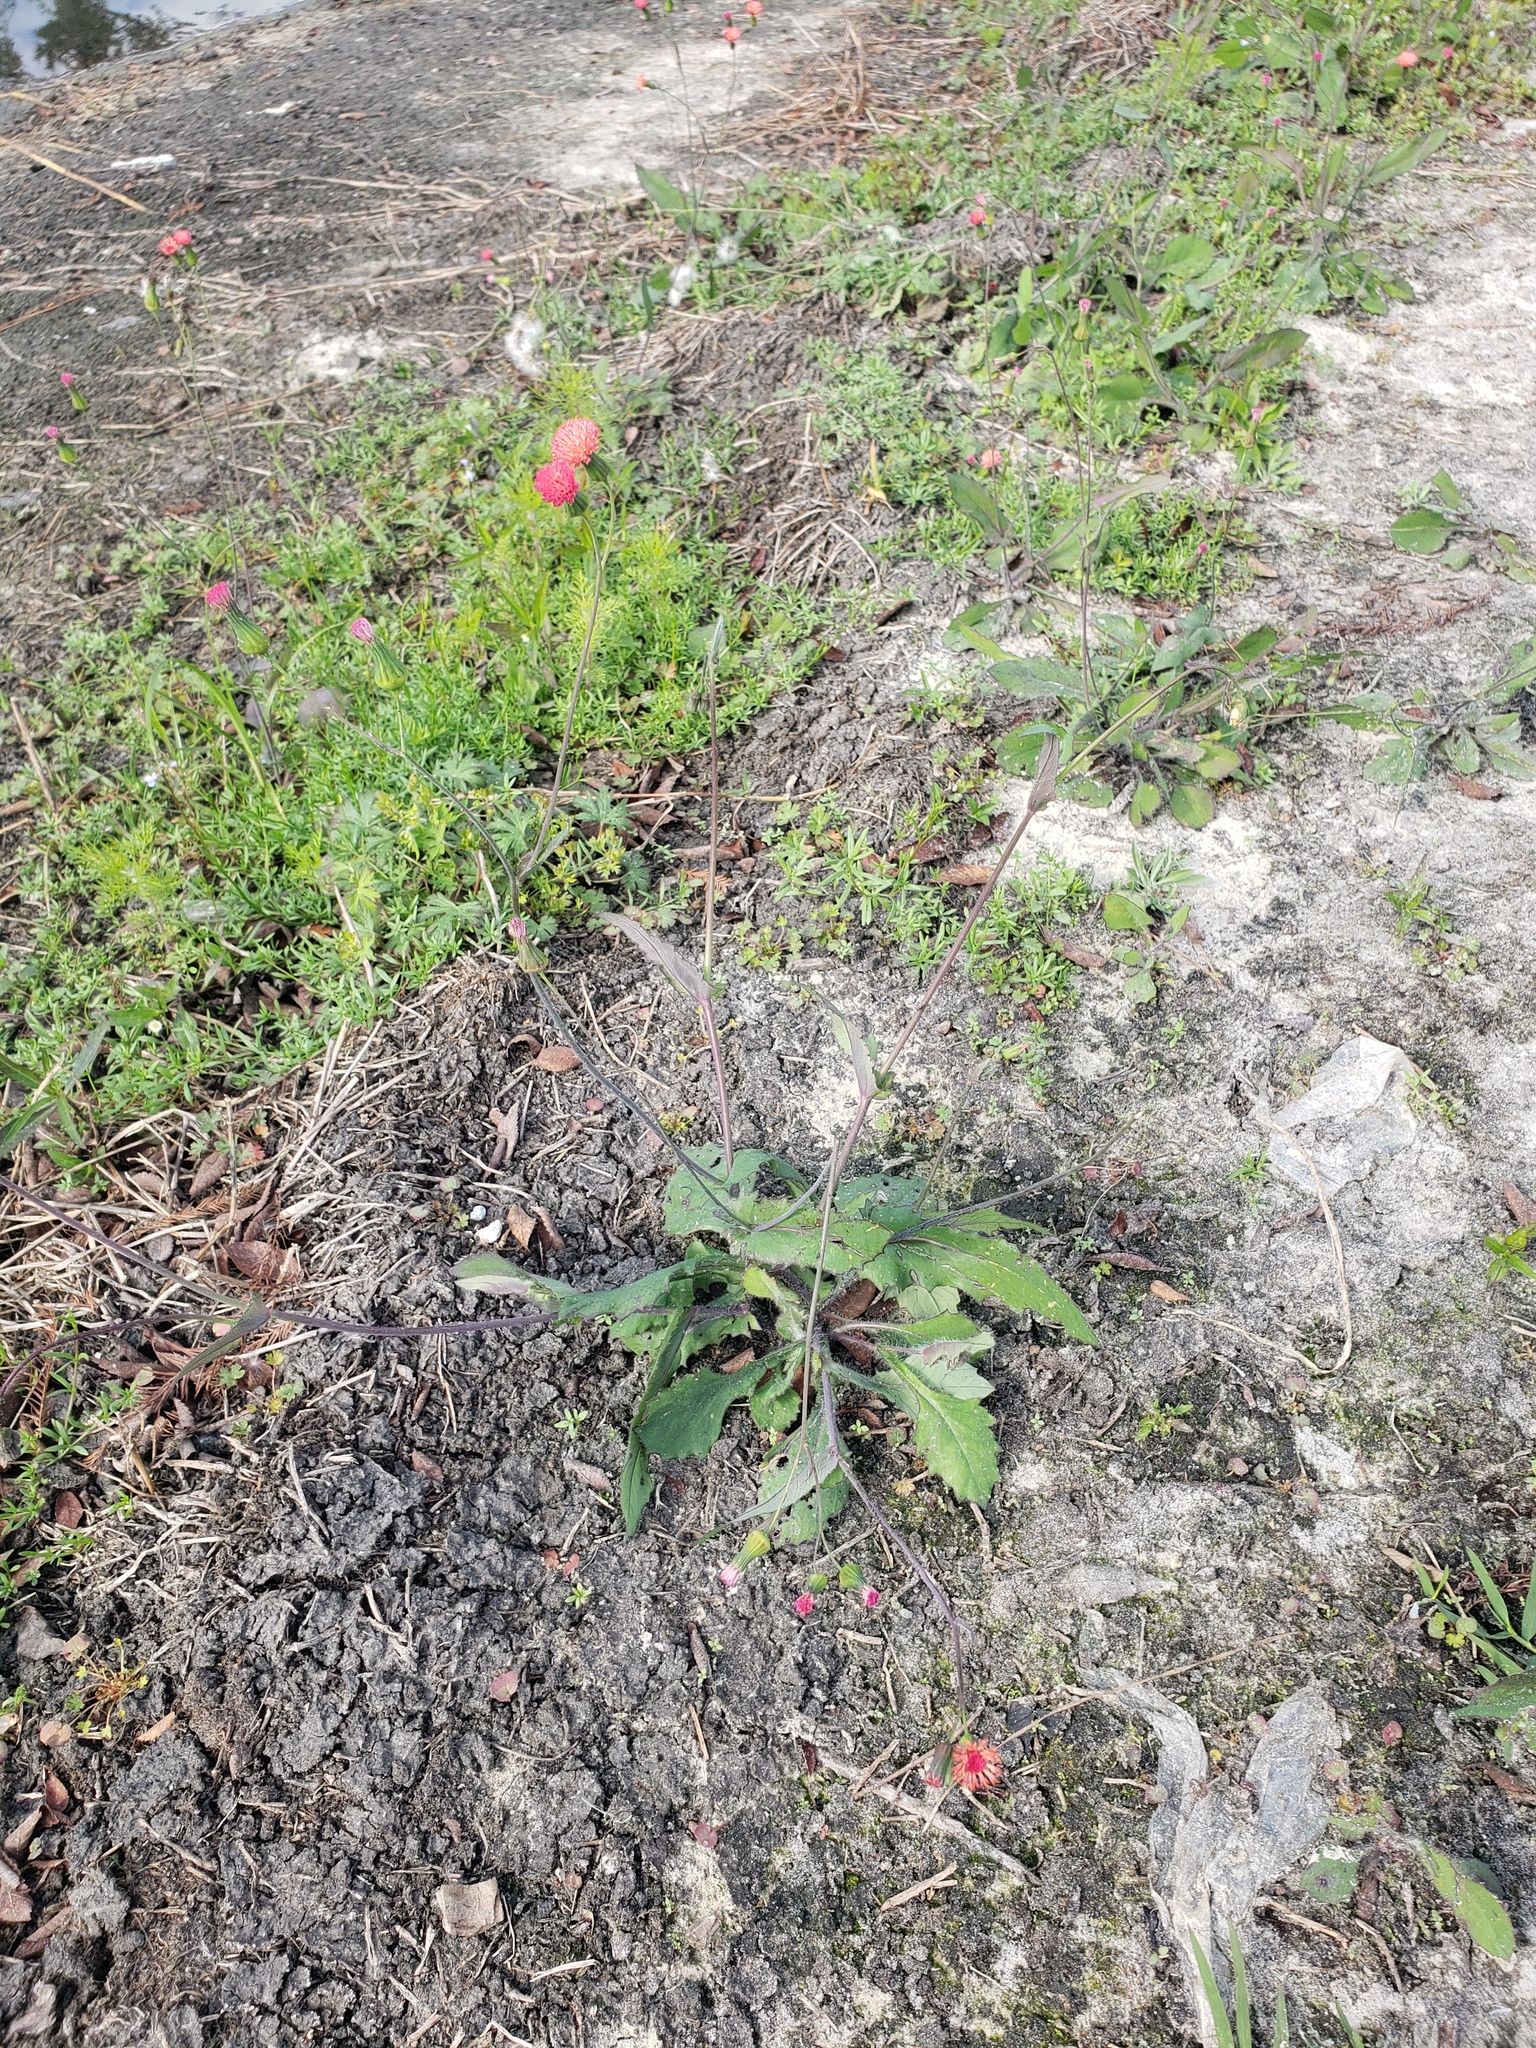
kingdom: Plantae
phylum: Tracheophyta
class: Magnoliopsida
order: Asterales
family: Asteraceae
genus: Emilia
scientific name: Emilia fosbergii
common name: Florida tasselflower
